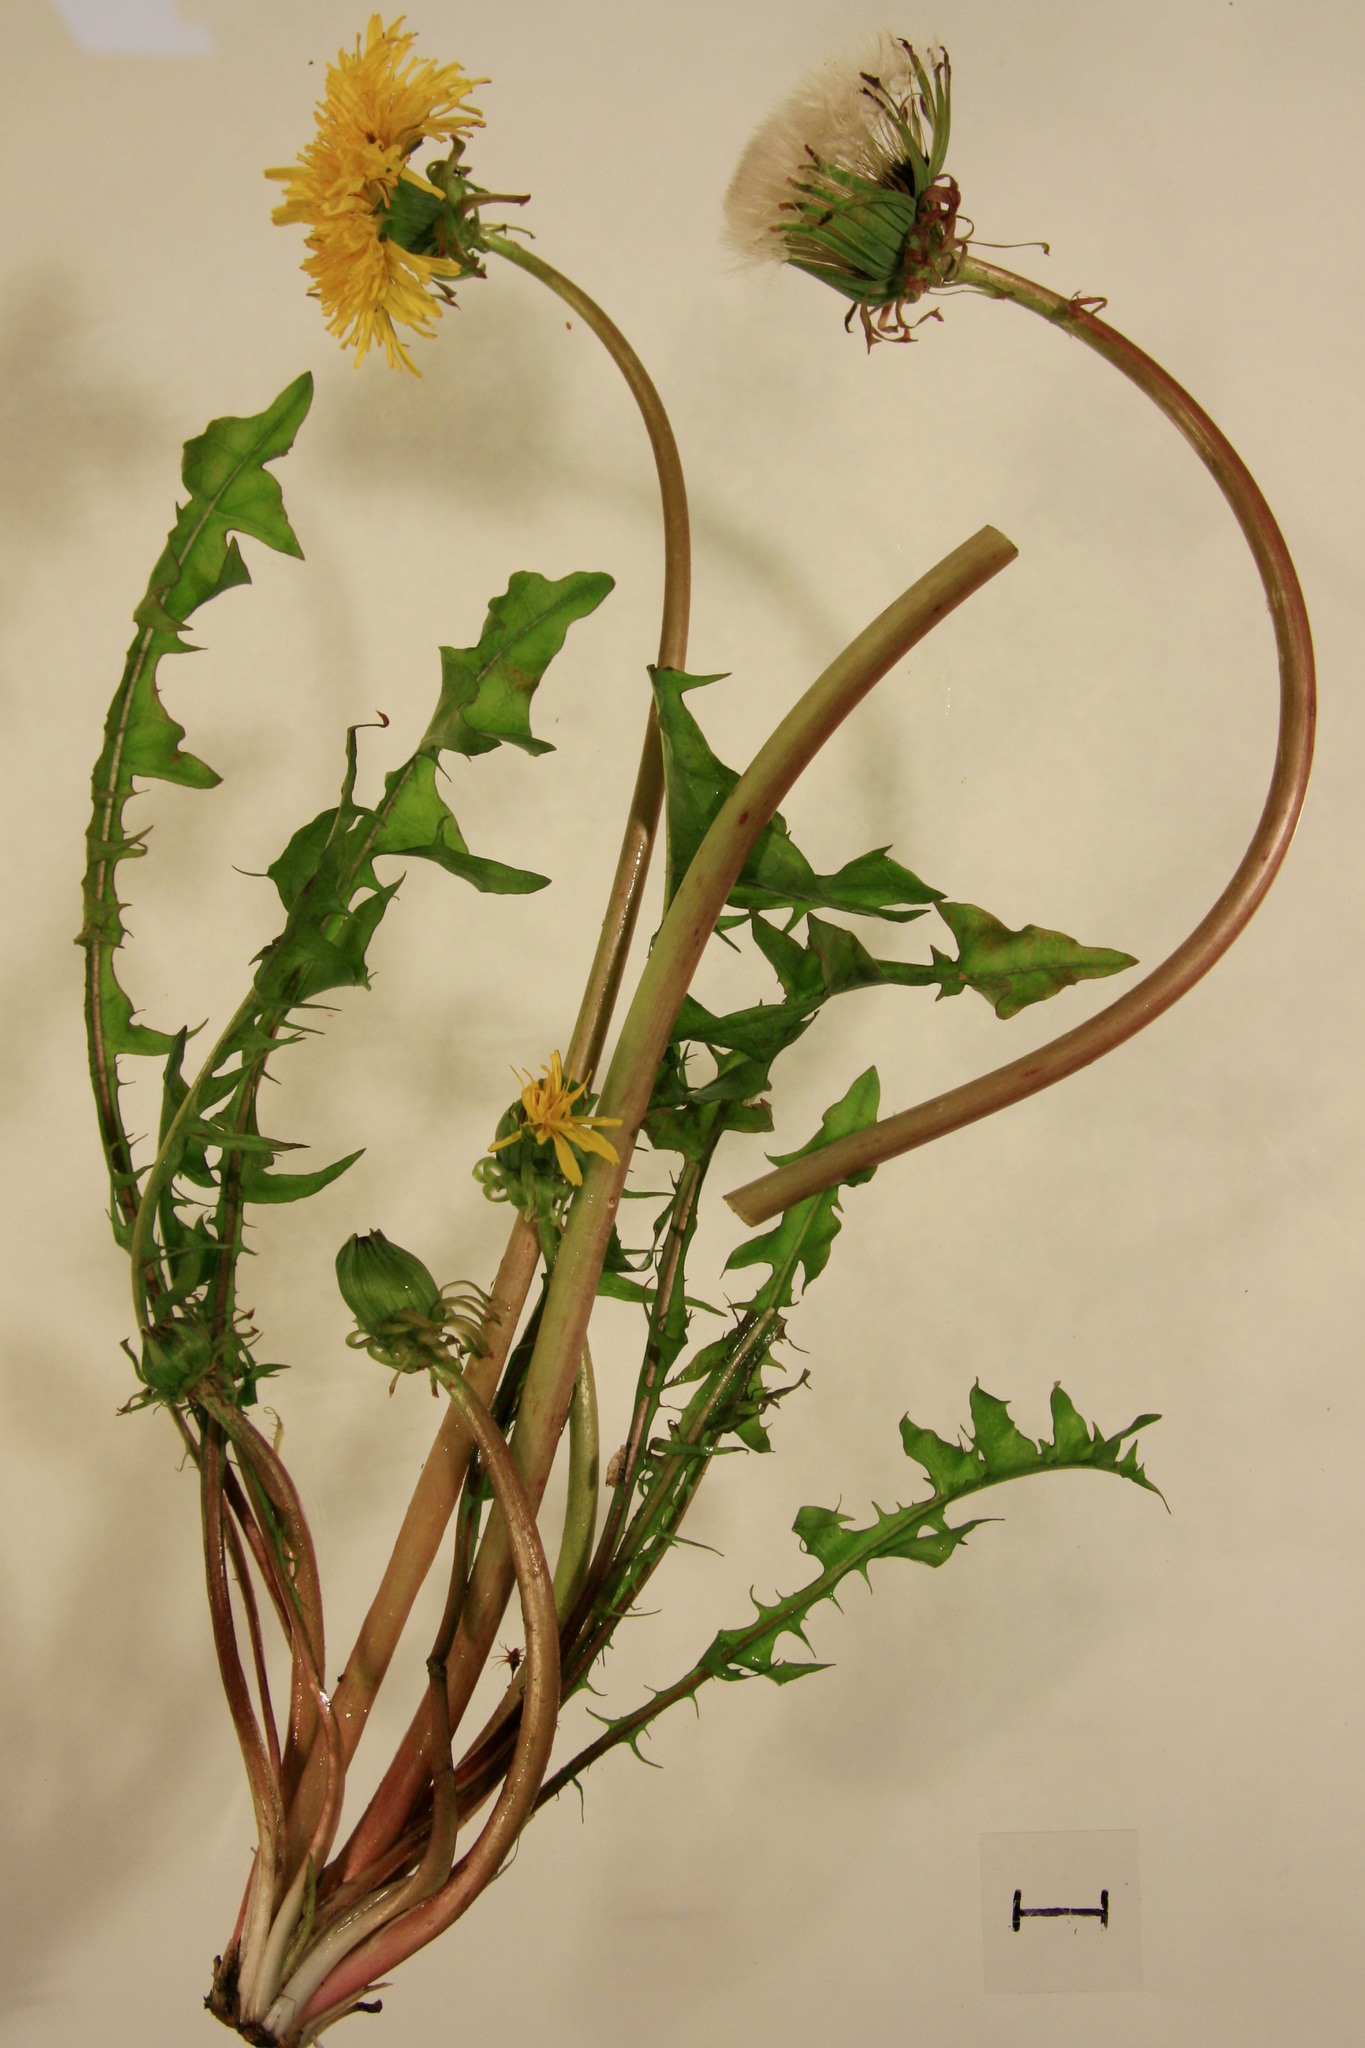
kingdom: Plantae
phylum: Tracheophyta
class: Magnoliopsida
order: Asterales
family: Asteraceae
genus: Taraxacum
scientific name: Taraxacum officinale
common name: Common dandelion
